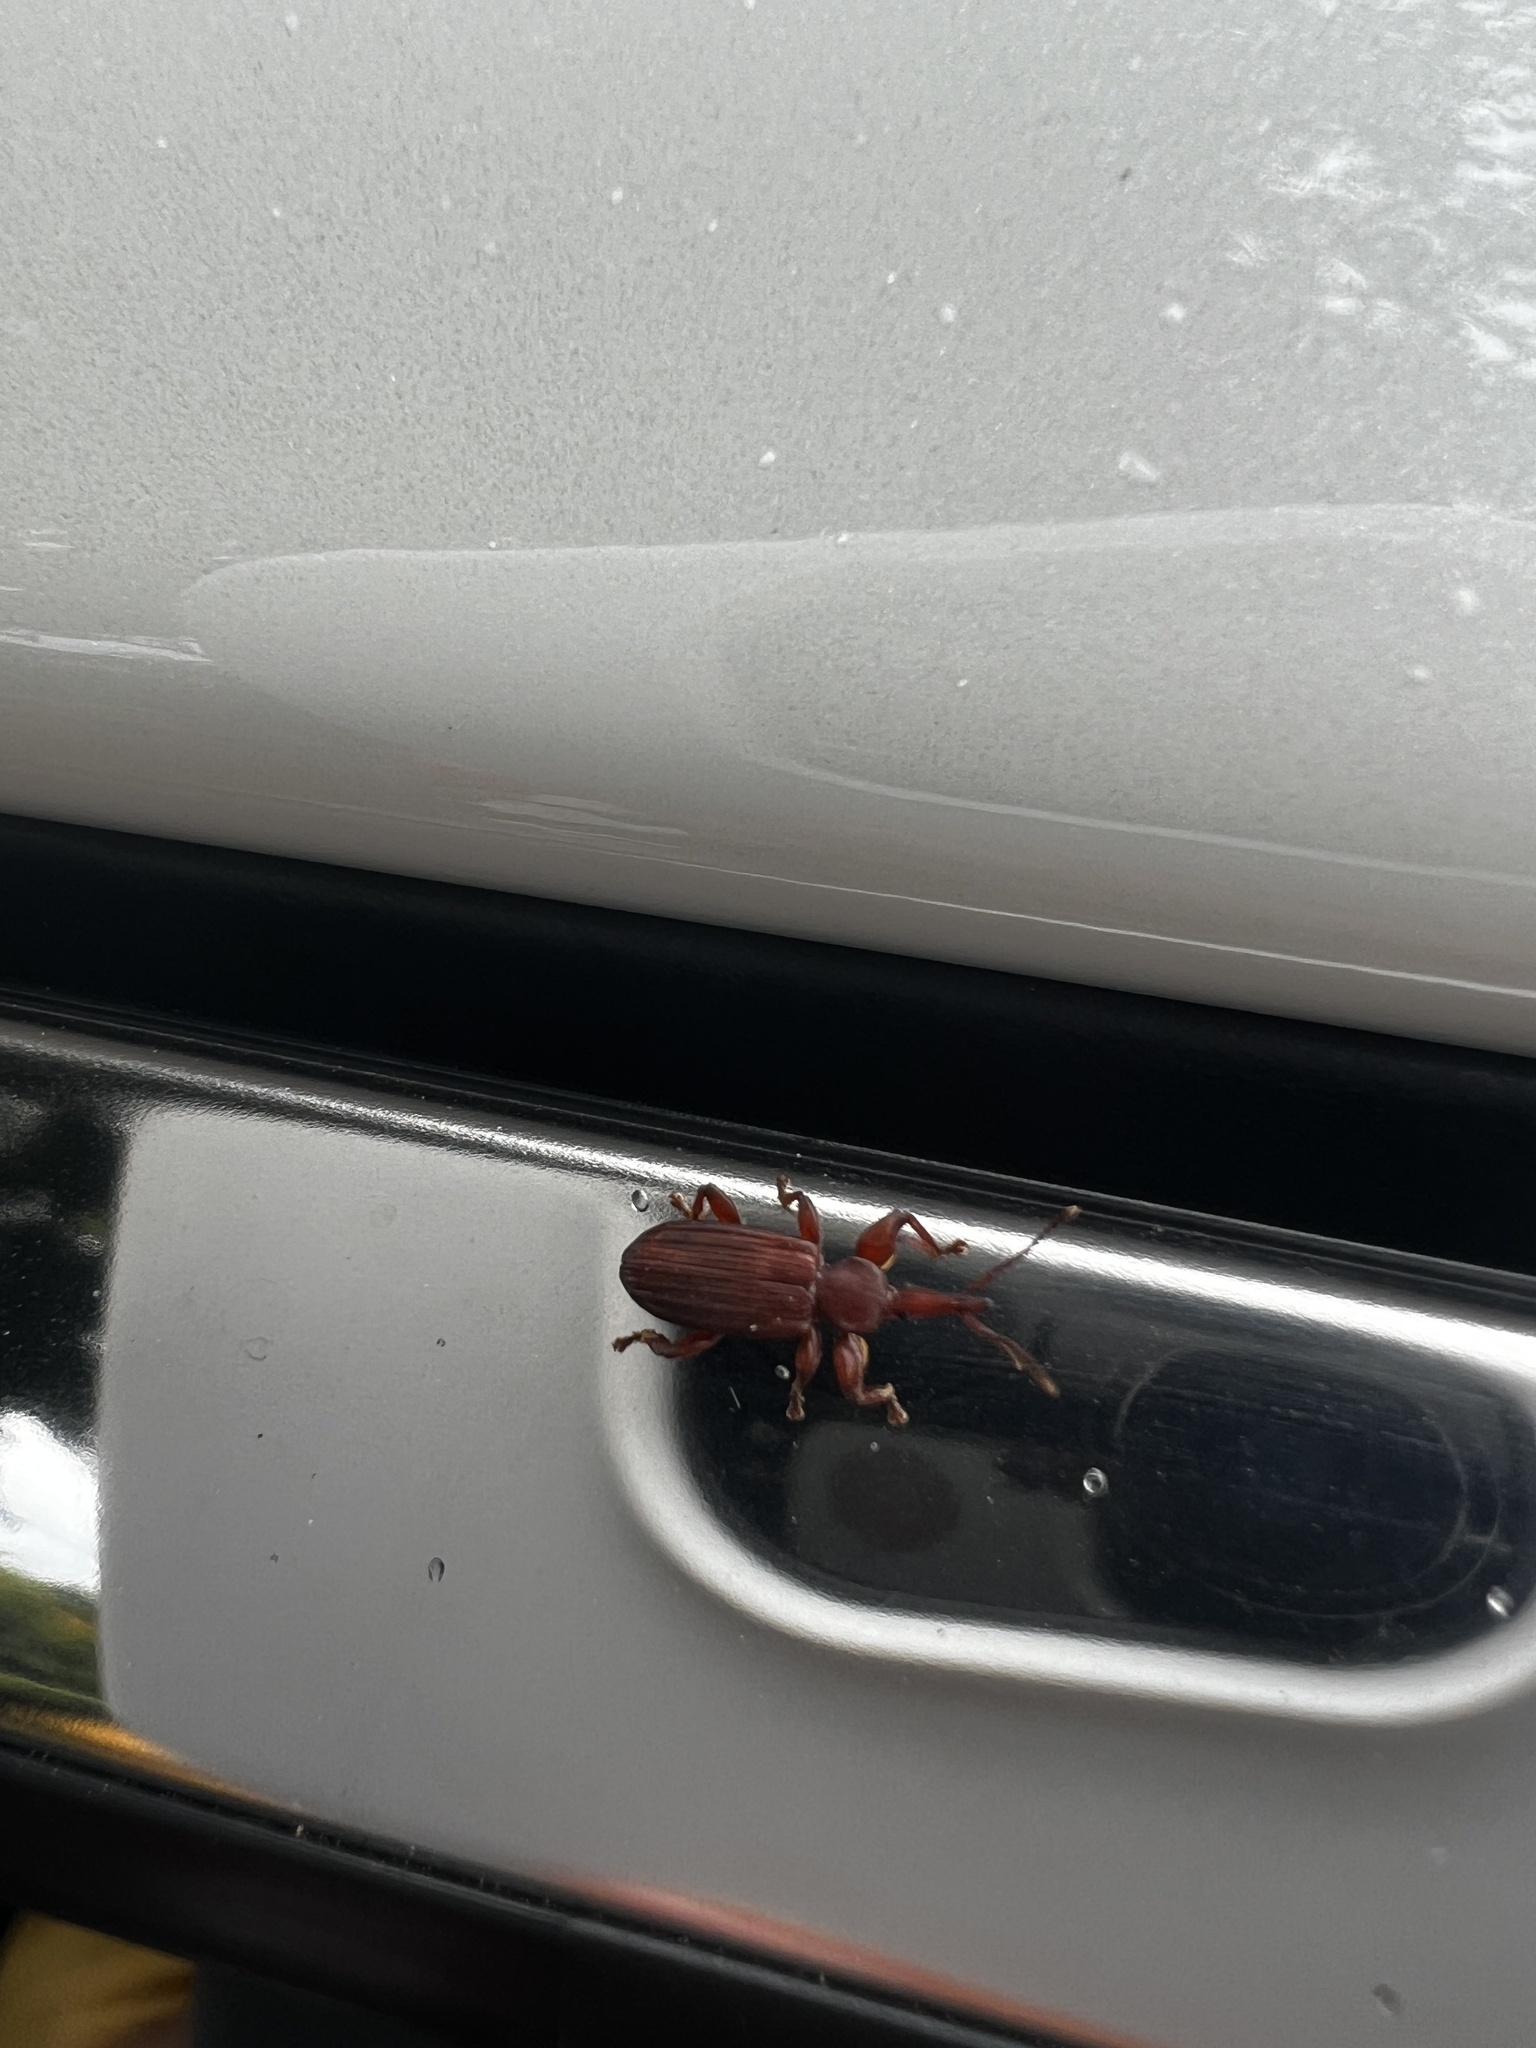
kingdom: Animalia
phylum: Arthropoda
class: Insecta
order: Coleoptera
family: Brentidae
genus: Antliarhinus
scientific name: Antliarhinus Antliarhis zamiae
